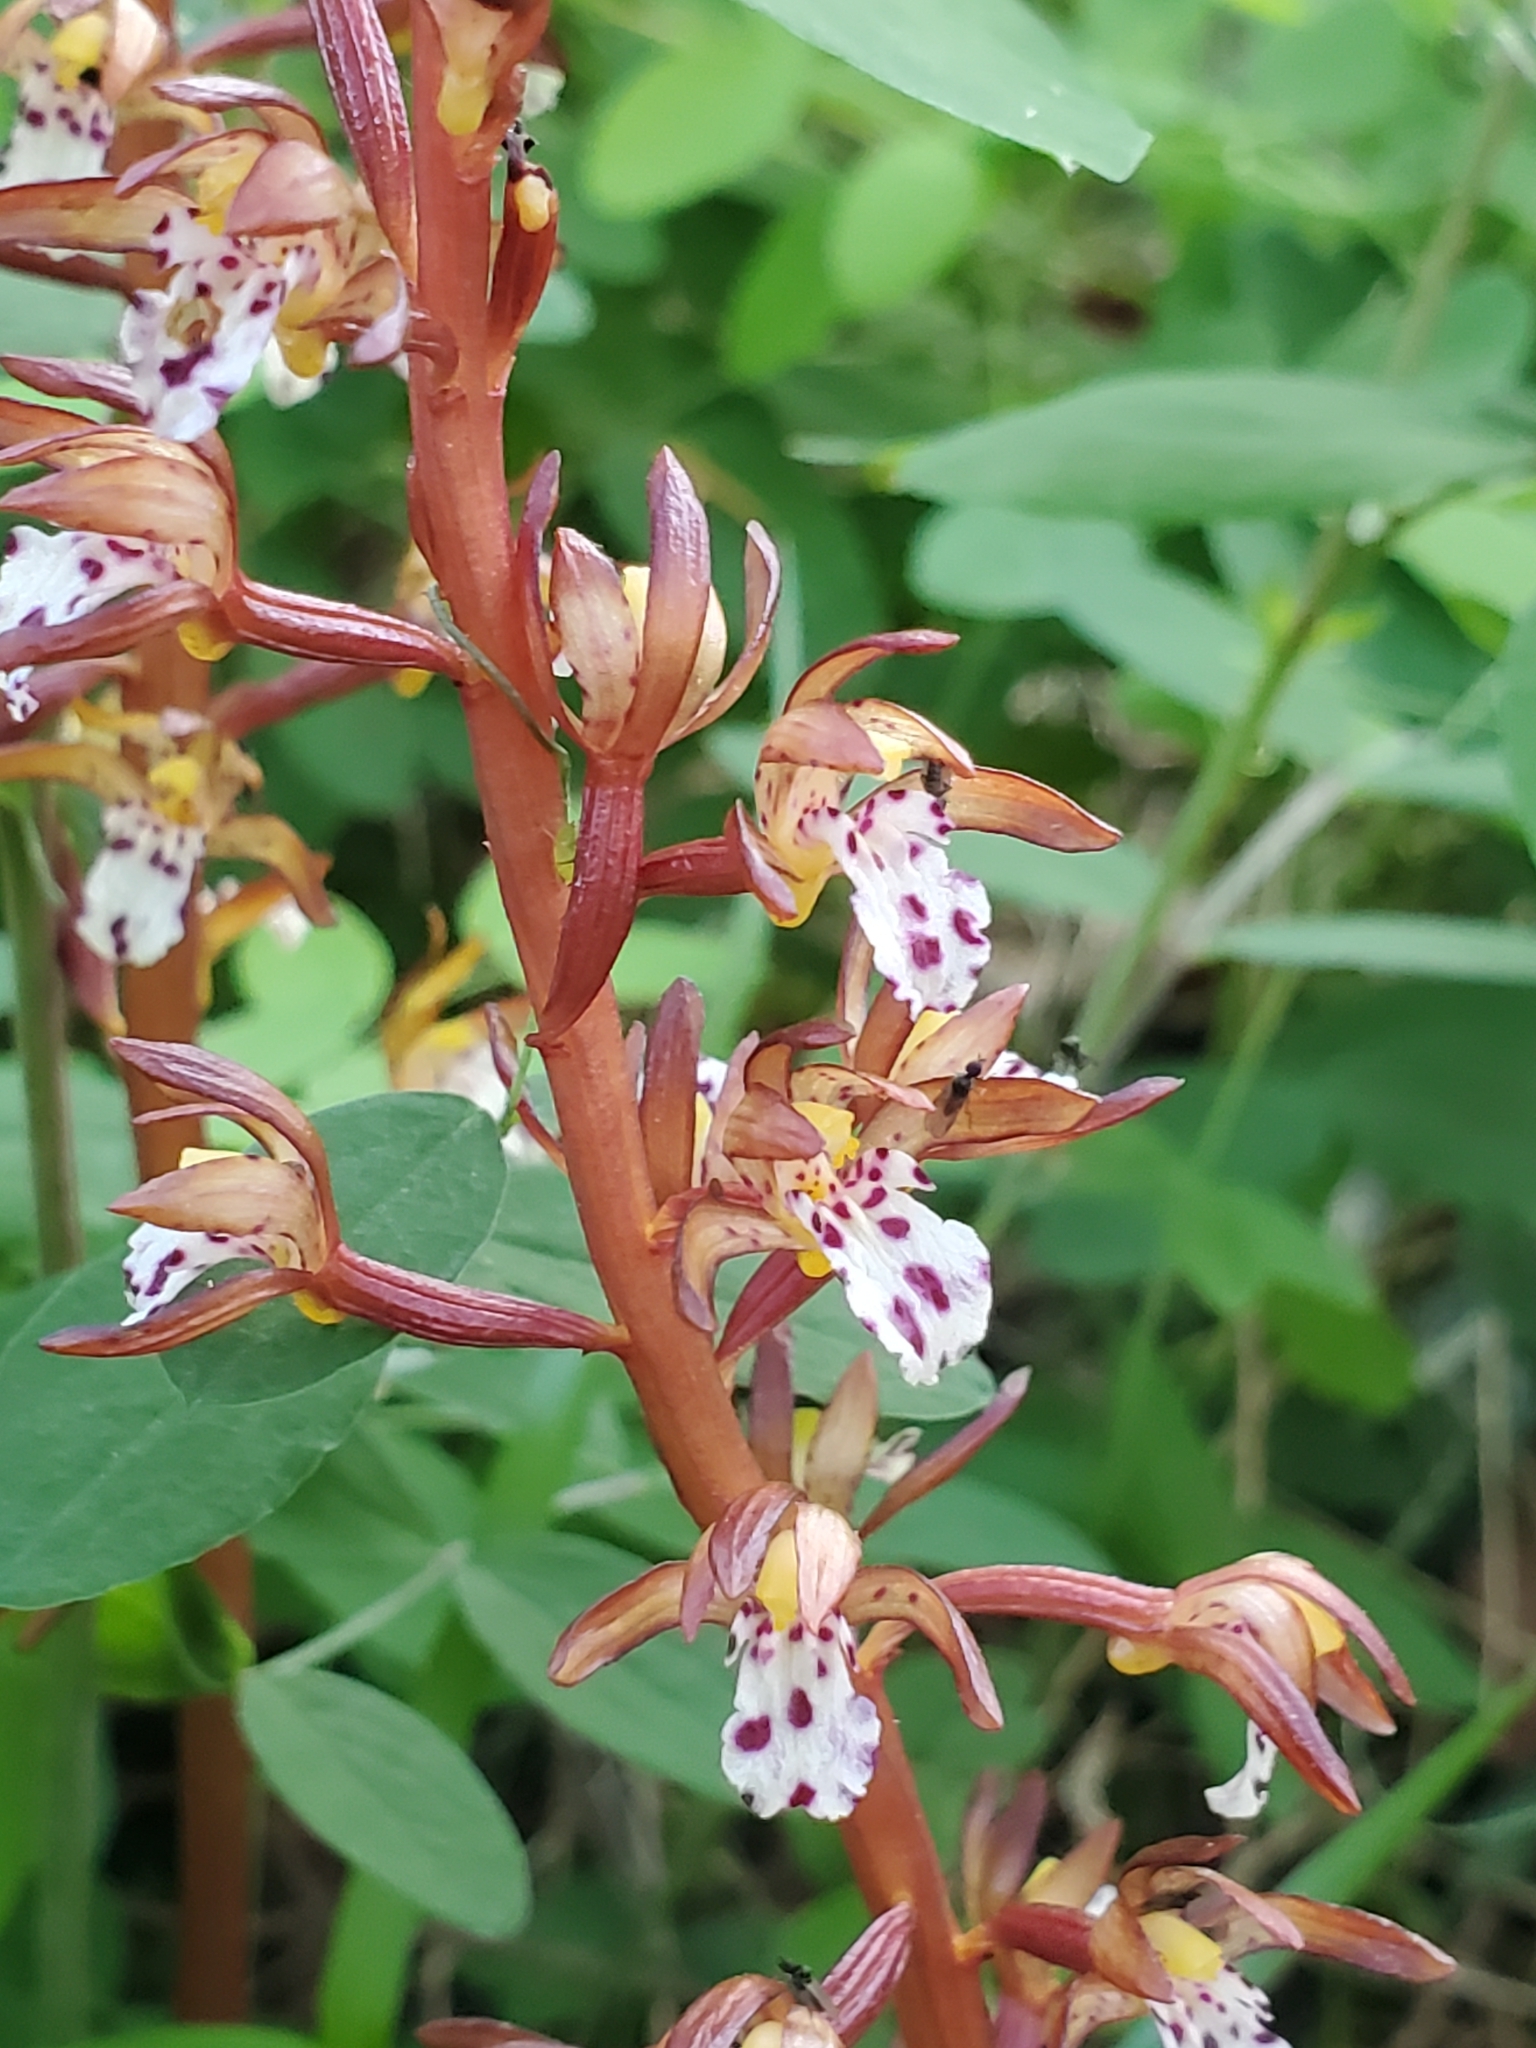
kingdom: Plantae
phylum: Tracheophyta
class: Liliopsida
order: Asparagales
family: Orchidaceae
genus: Corallorhiza
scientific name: Corallorhiza maculata
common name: Spotted coralroot
